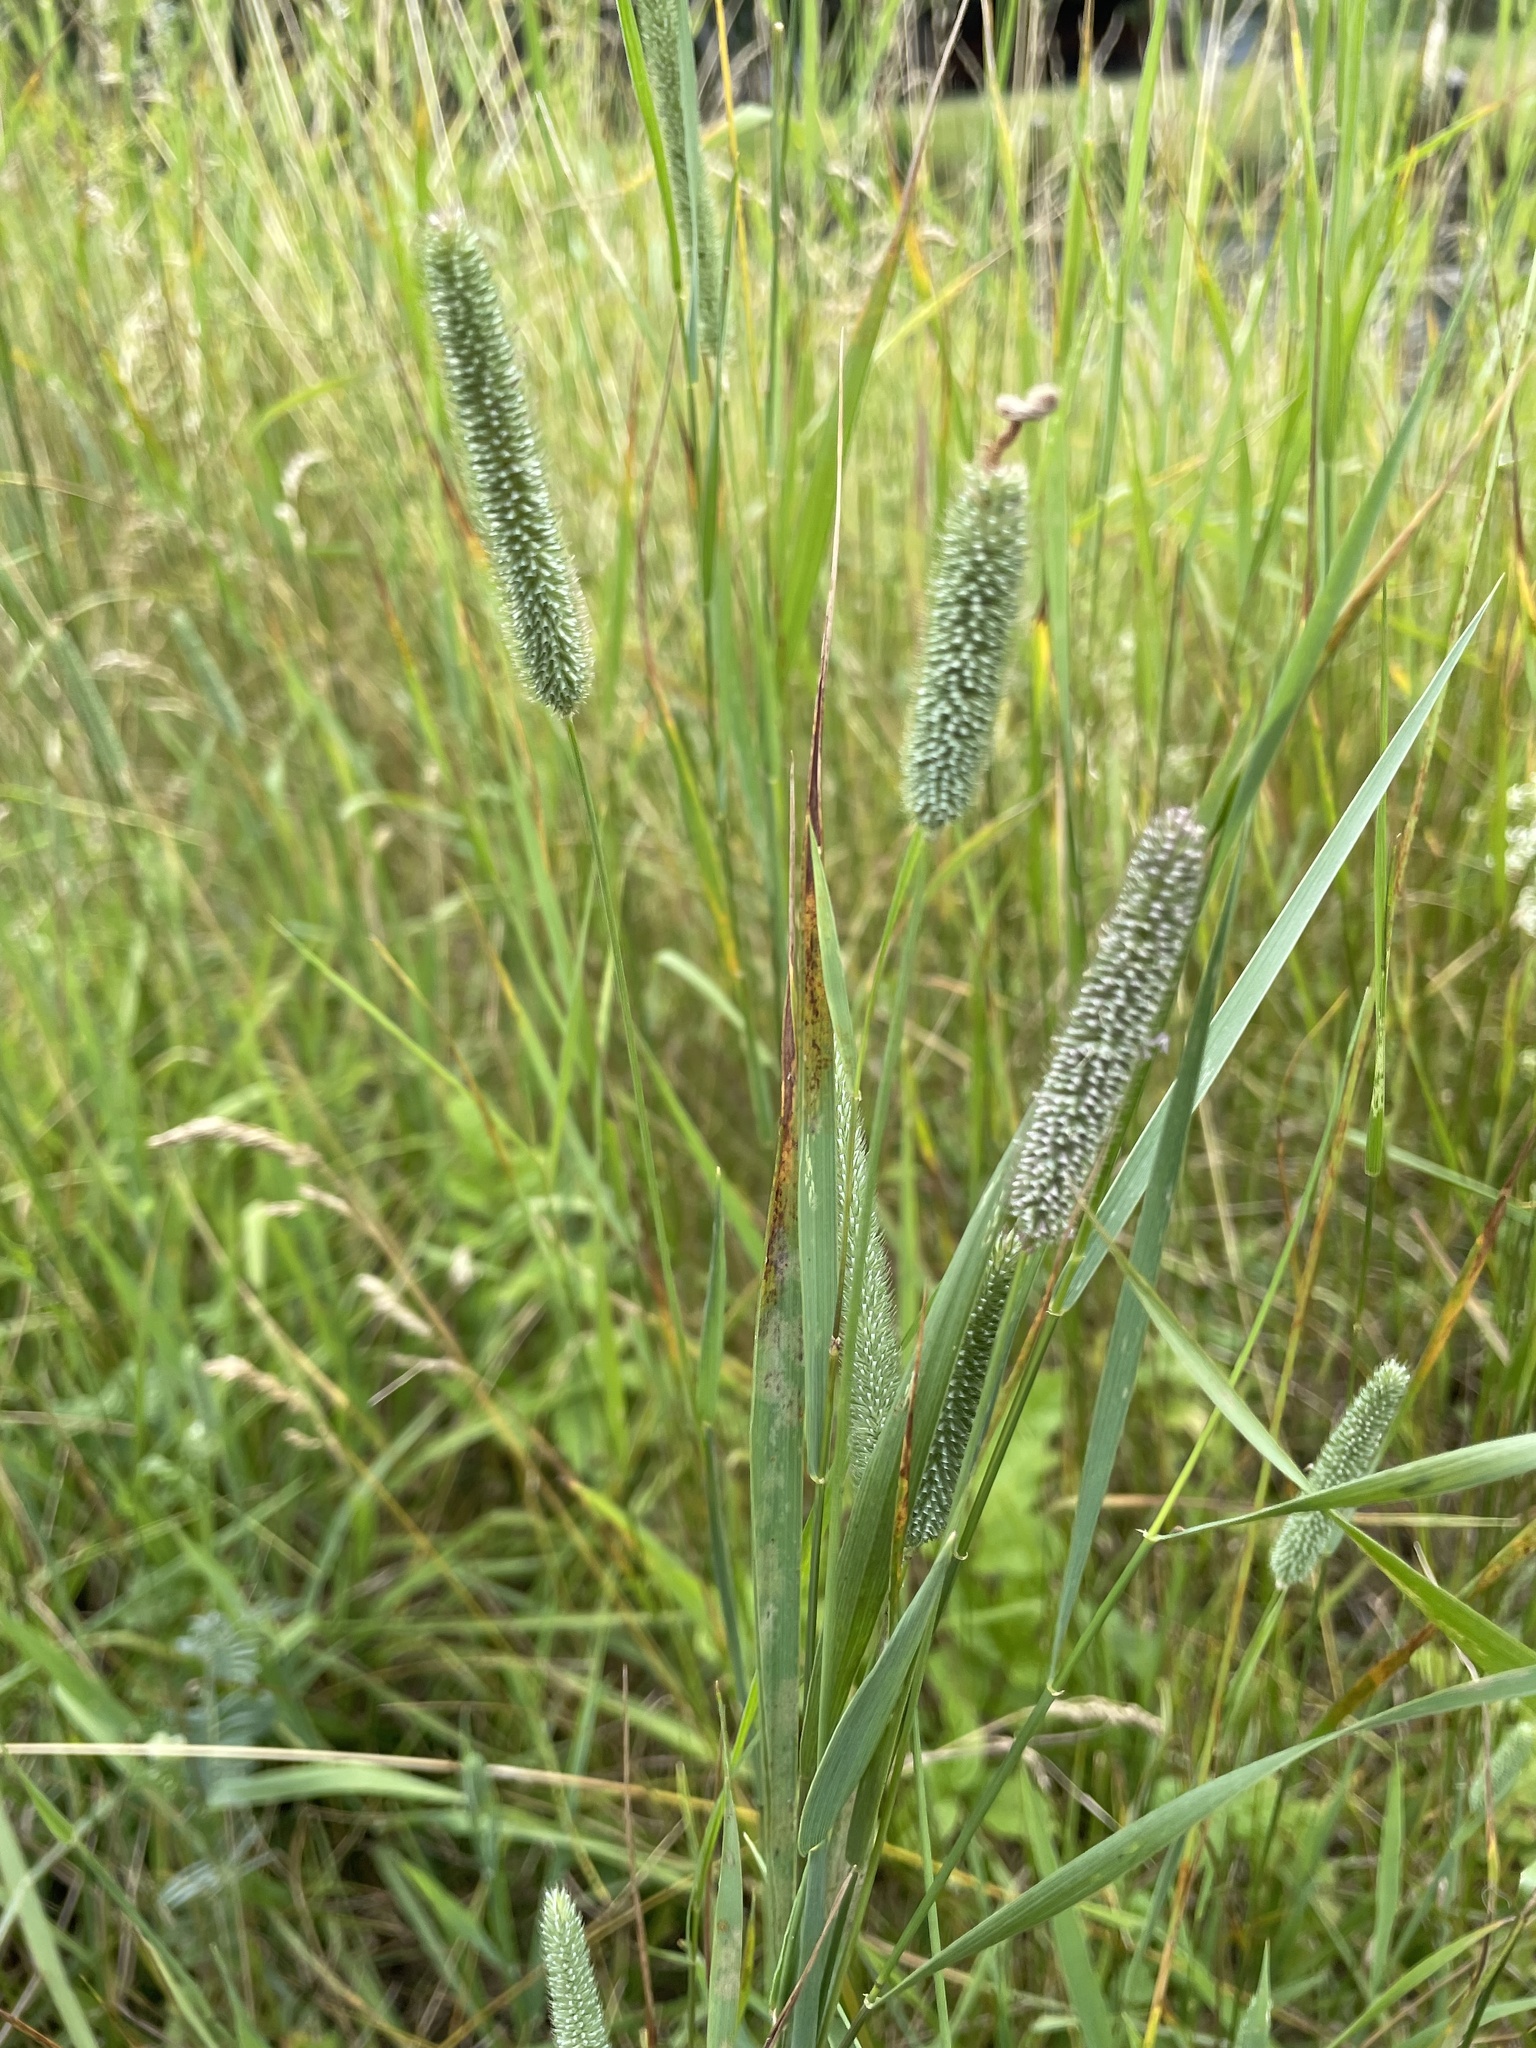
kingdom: Plantae
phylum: Tracheophyta
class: Liliopsida
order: Poales
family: Poaceae
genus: Phleum
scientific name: Phleum pratense
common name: Timothy grass
